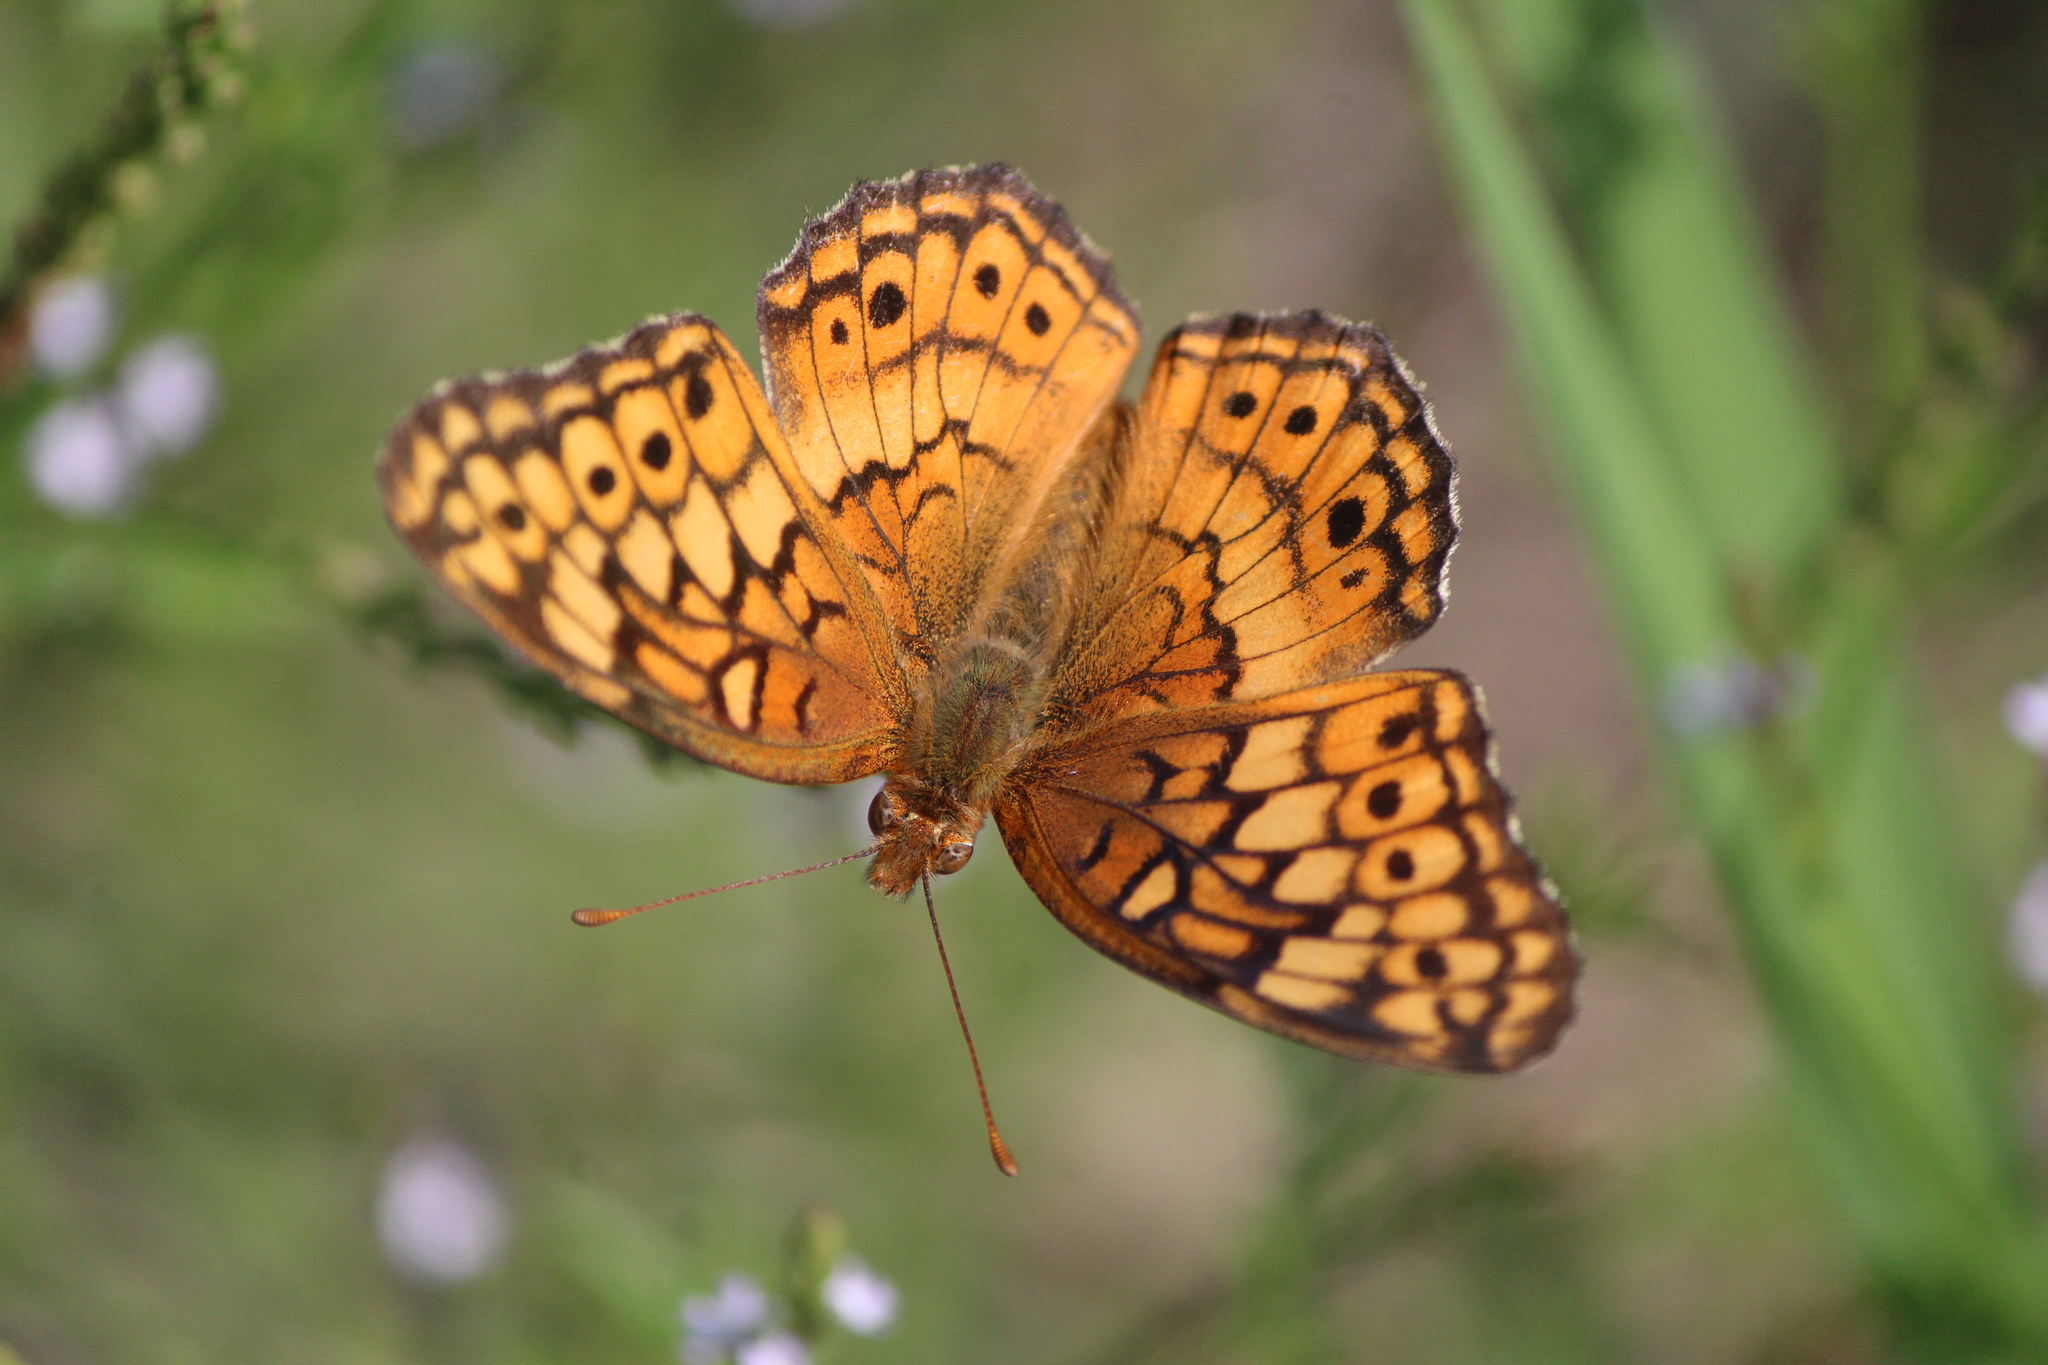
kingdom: Animalia
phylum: Arthropoda
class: Insecta
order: Lepidoptera
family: Nymphalidae
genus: Euptoieta
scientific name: Euptoieta claudia
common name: Variegated fritillary
